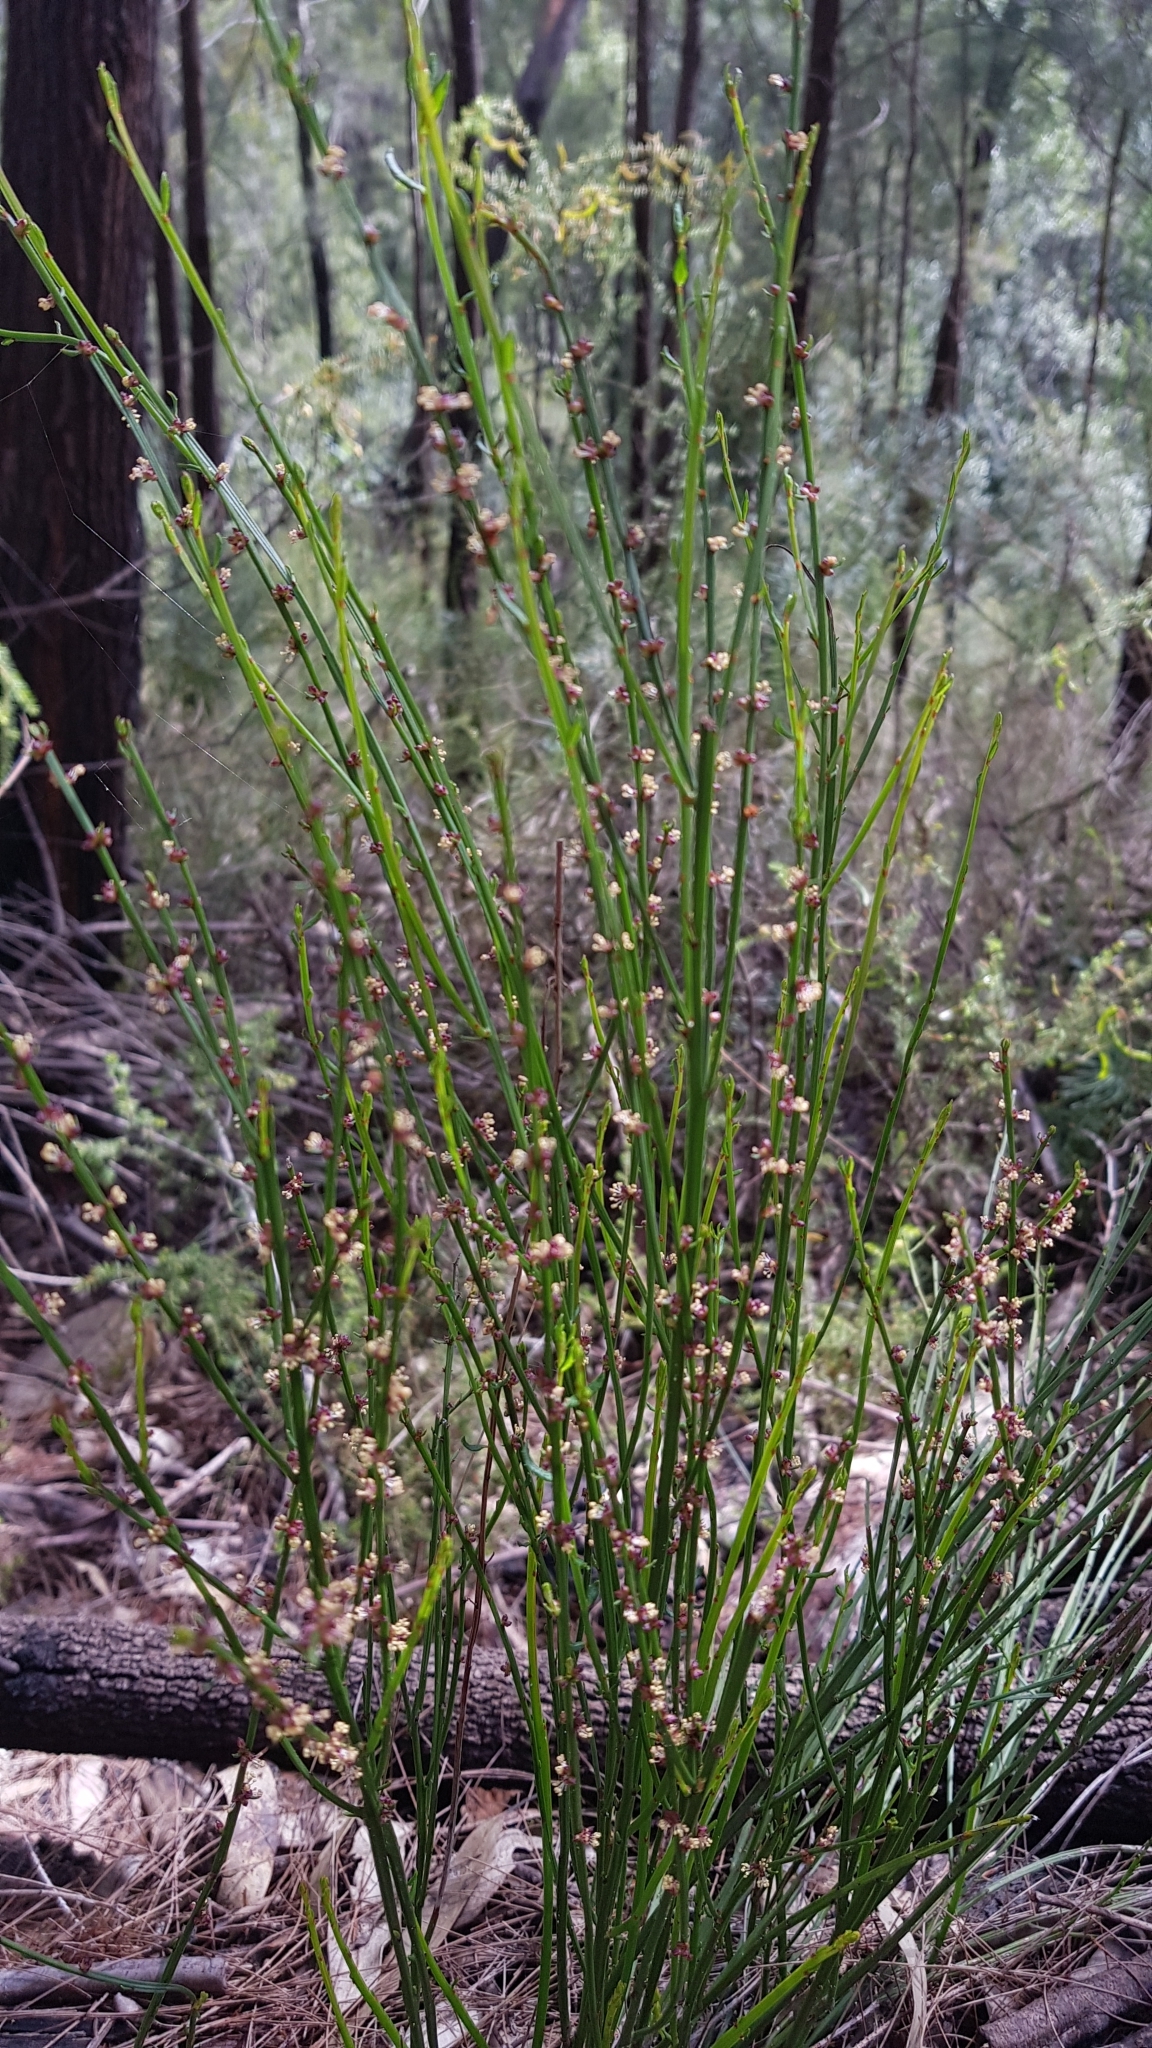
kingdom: Plantae
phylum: Tracheophyta
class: Magnoliopsida
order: Malpighiales
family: Euphorbiaceae
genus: Amperea
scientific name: Amperea xiphoclada
